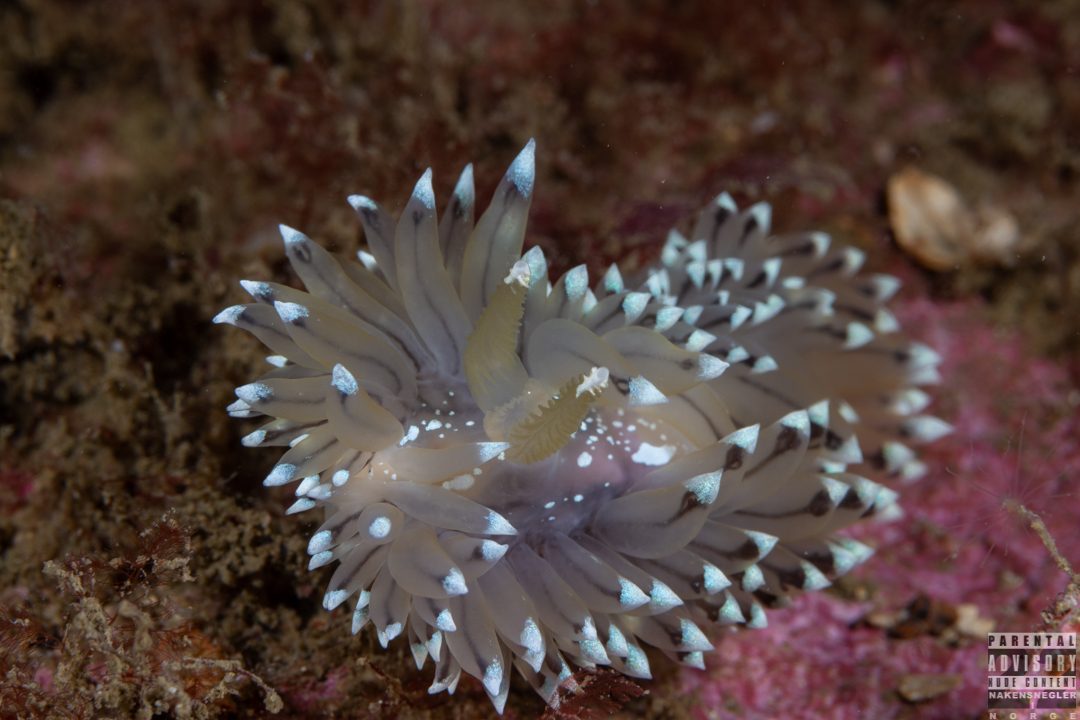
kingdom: Animalia
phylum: Mollusca
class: Gastropoda
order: Nudibranchia
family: Janolidae
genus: Antiopella
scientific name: Antiopella cristata
